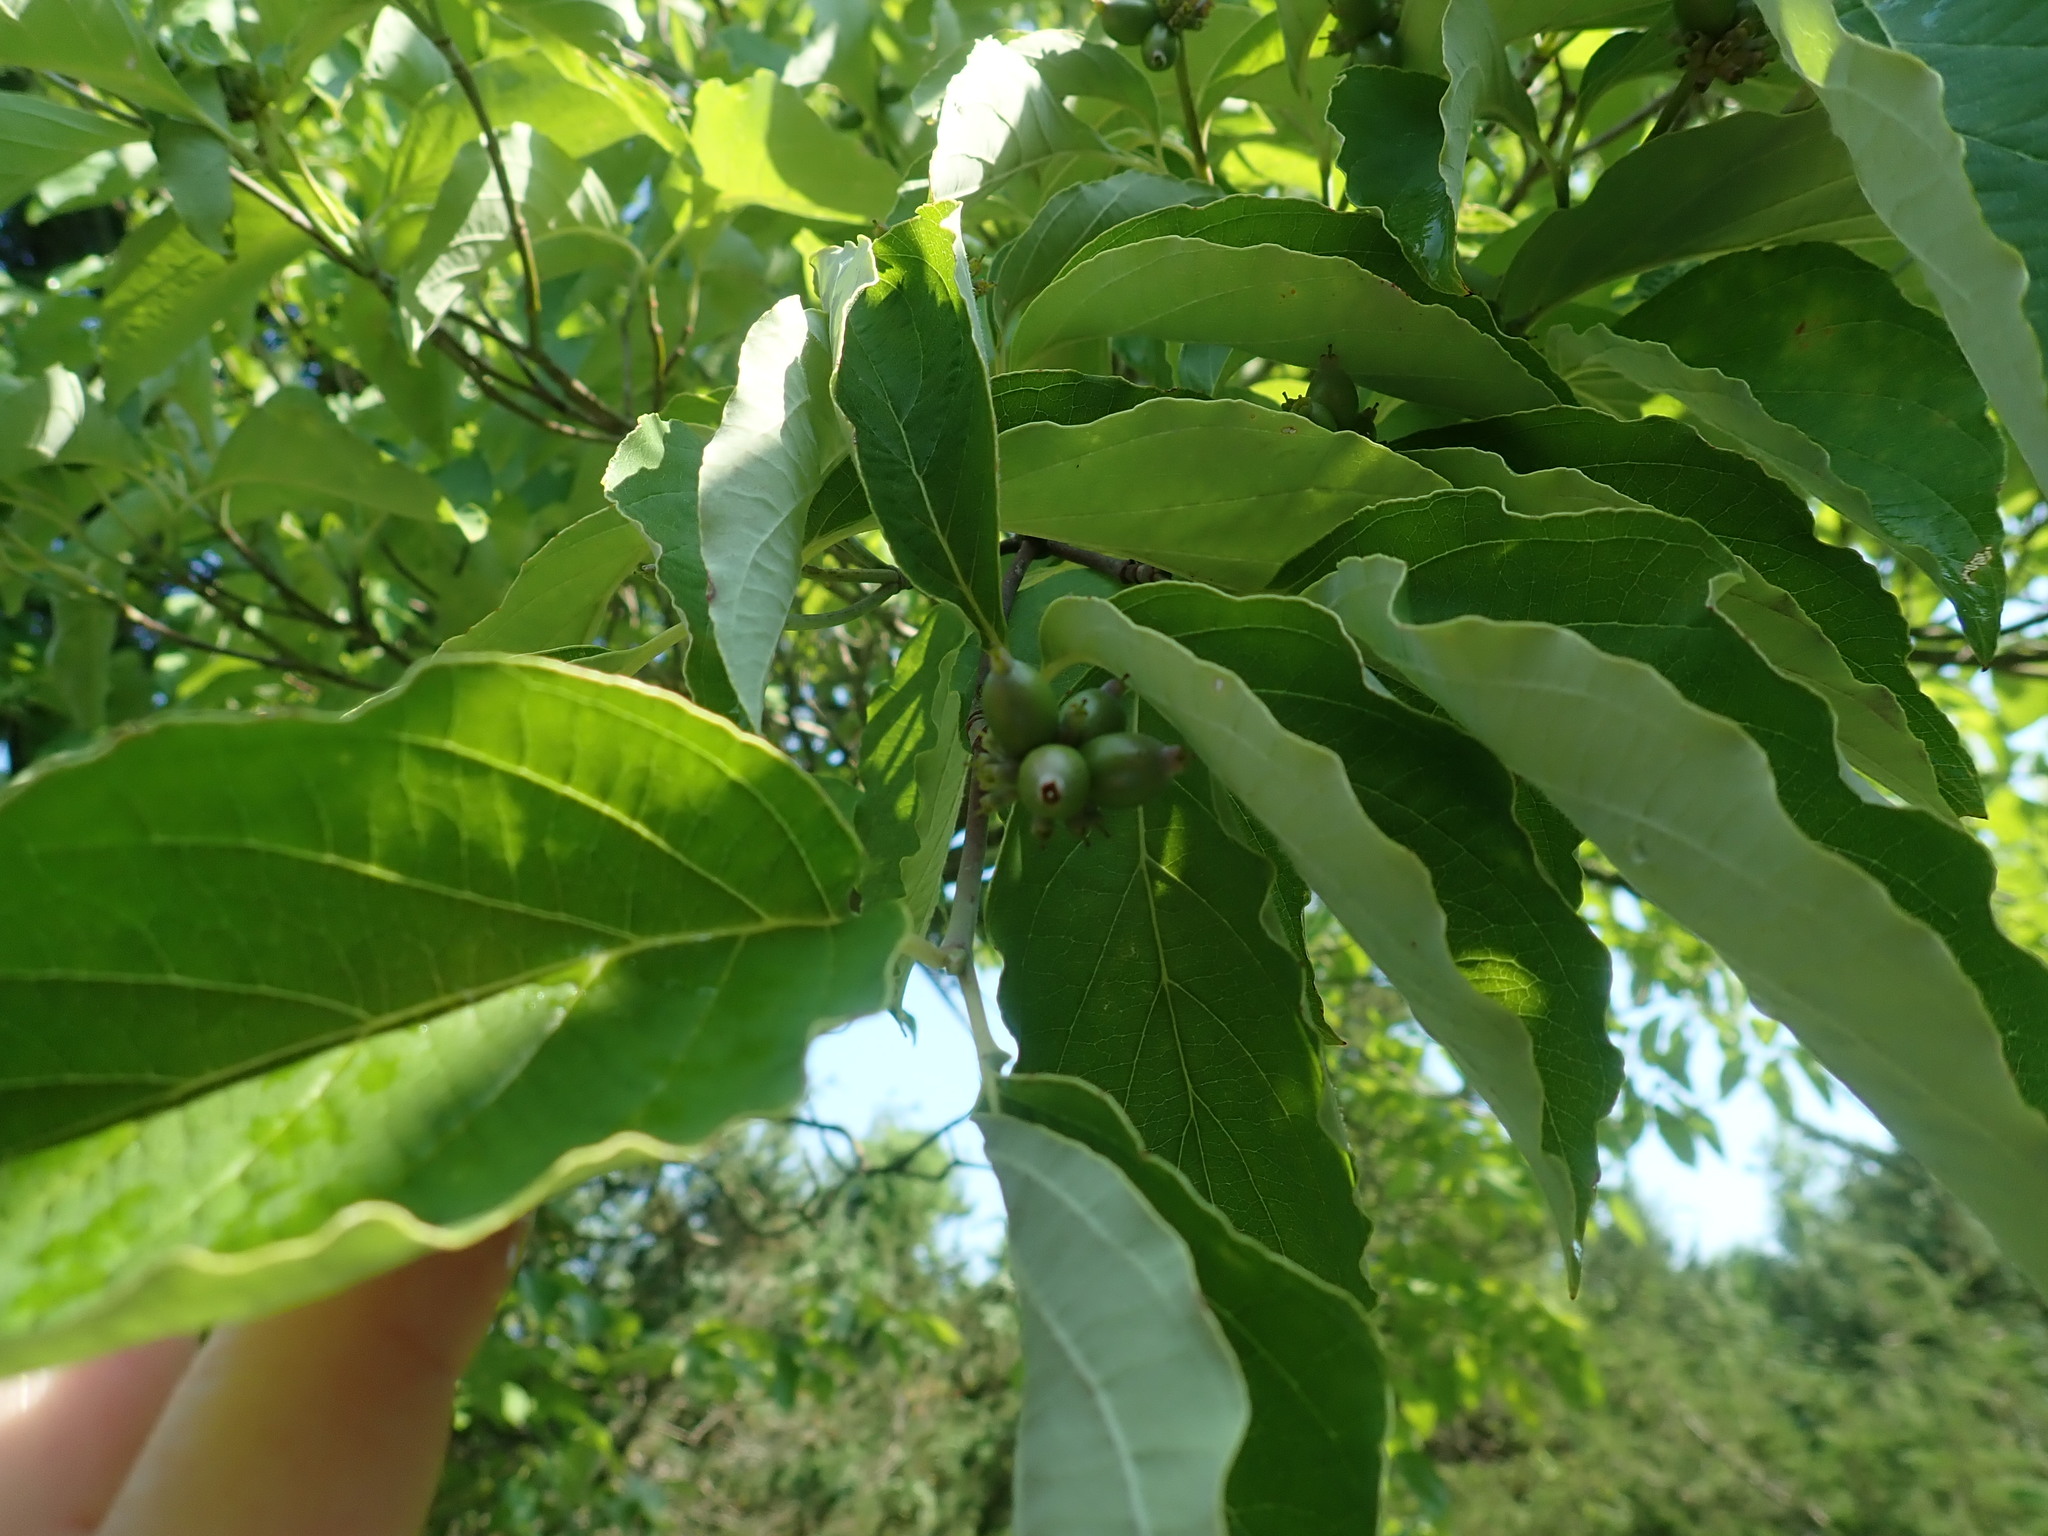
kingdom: Plantae
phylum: Tracheophyta
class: Magnoliopsida
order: Cornales
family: Cornaceae
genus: Cornus
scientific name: Cornus florida
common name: Flowering dogwood
